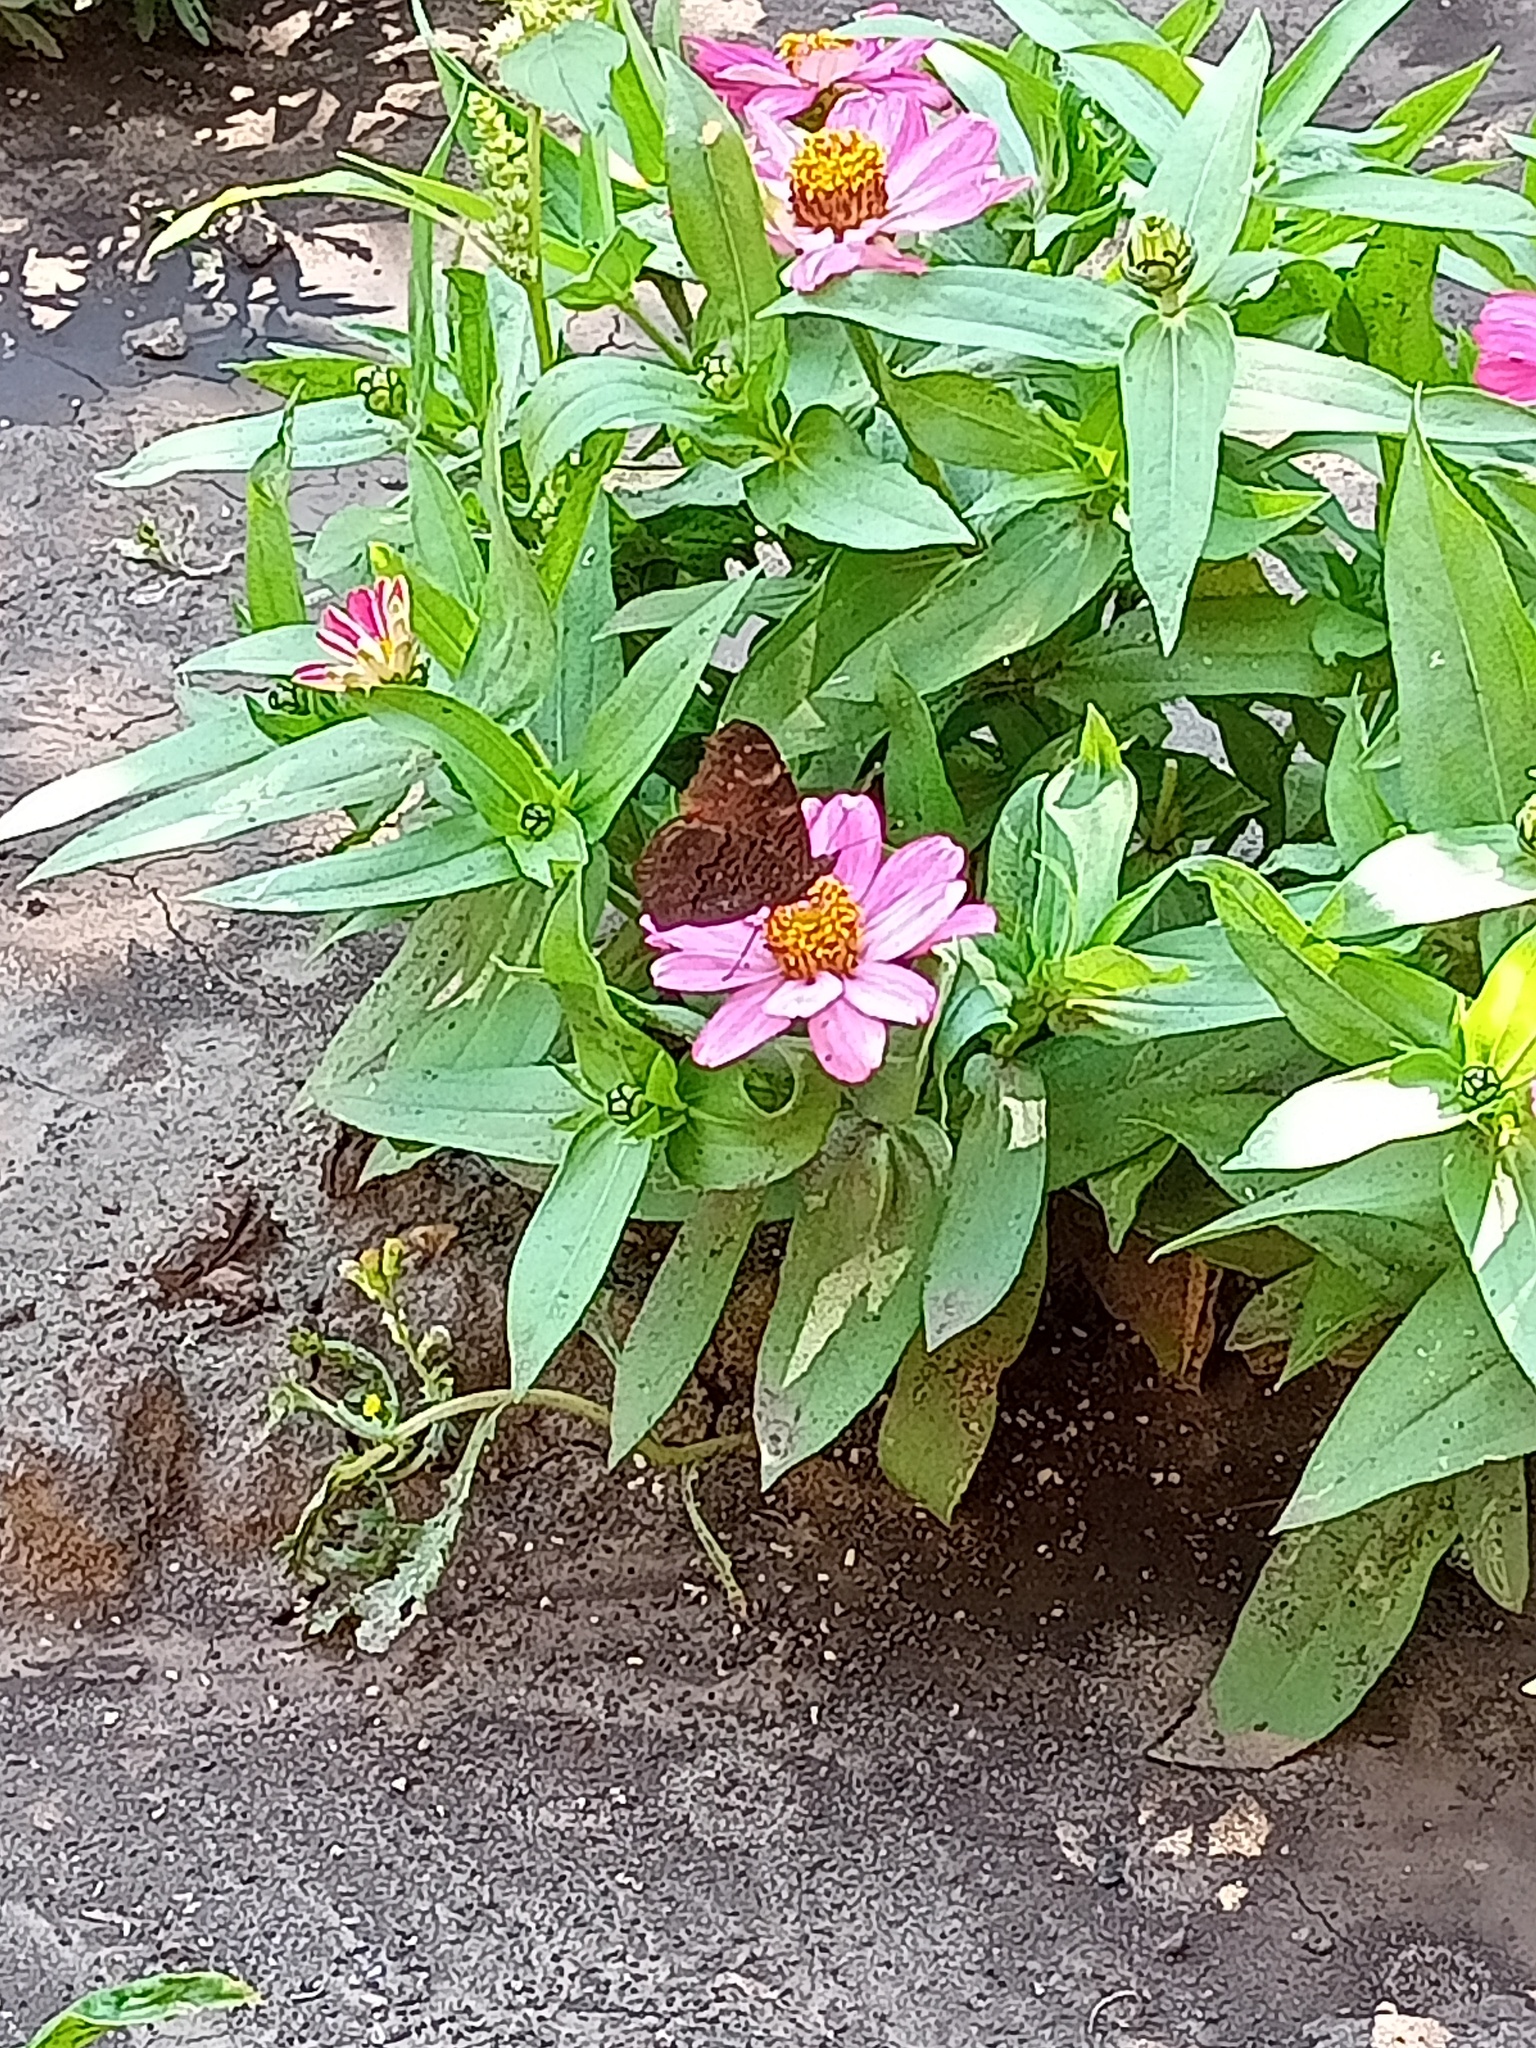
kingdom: Animalia
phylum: Arthropoda
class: Insecta
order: Lepidoptera
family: Nymphalidae
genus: Aglais
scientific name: Aglais io
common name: Peacock
